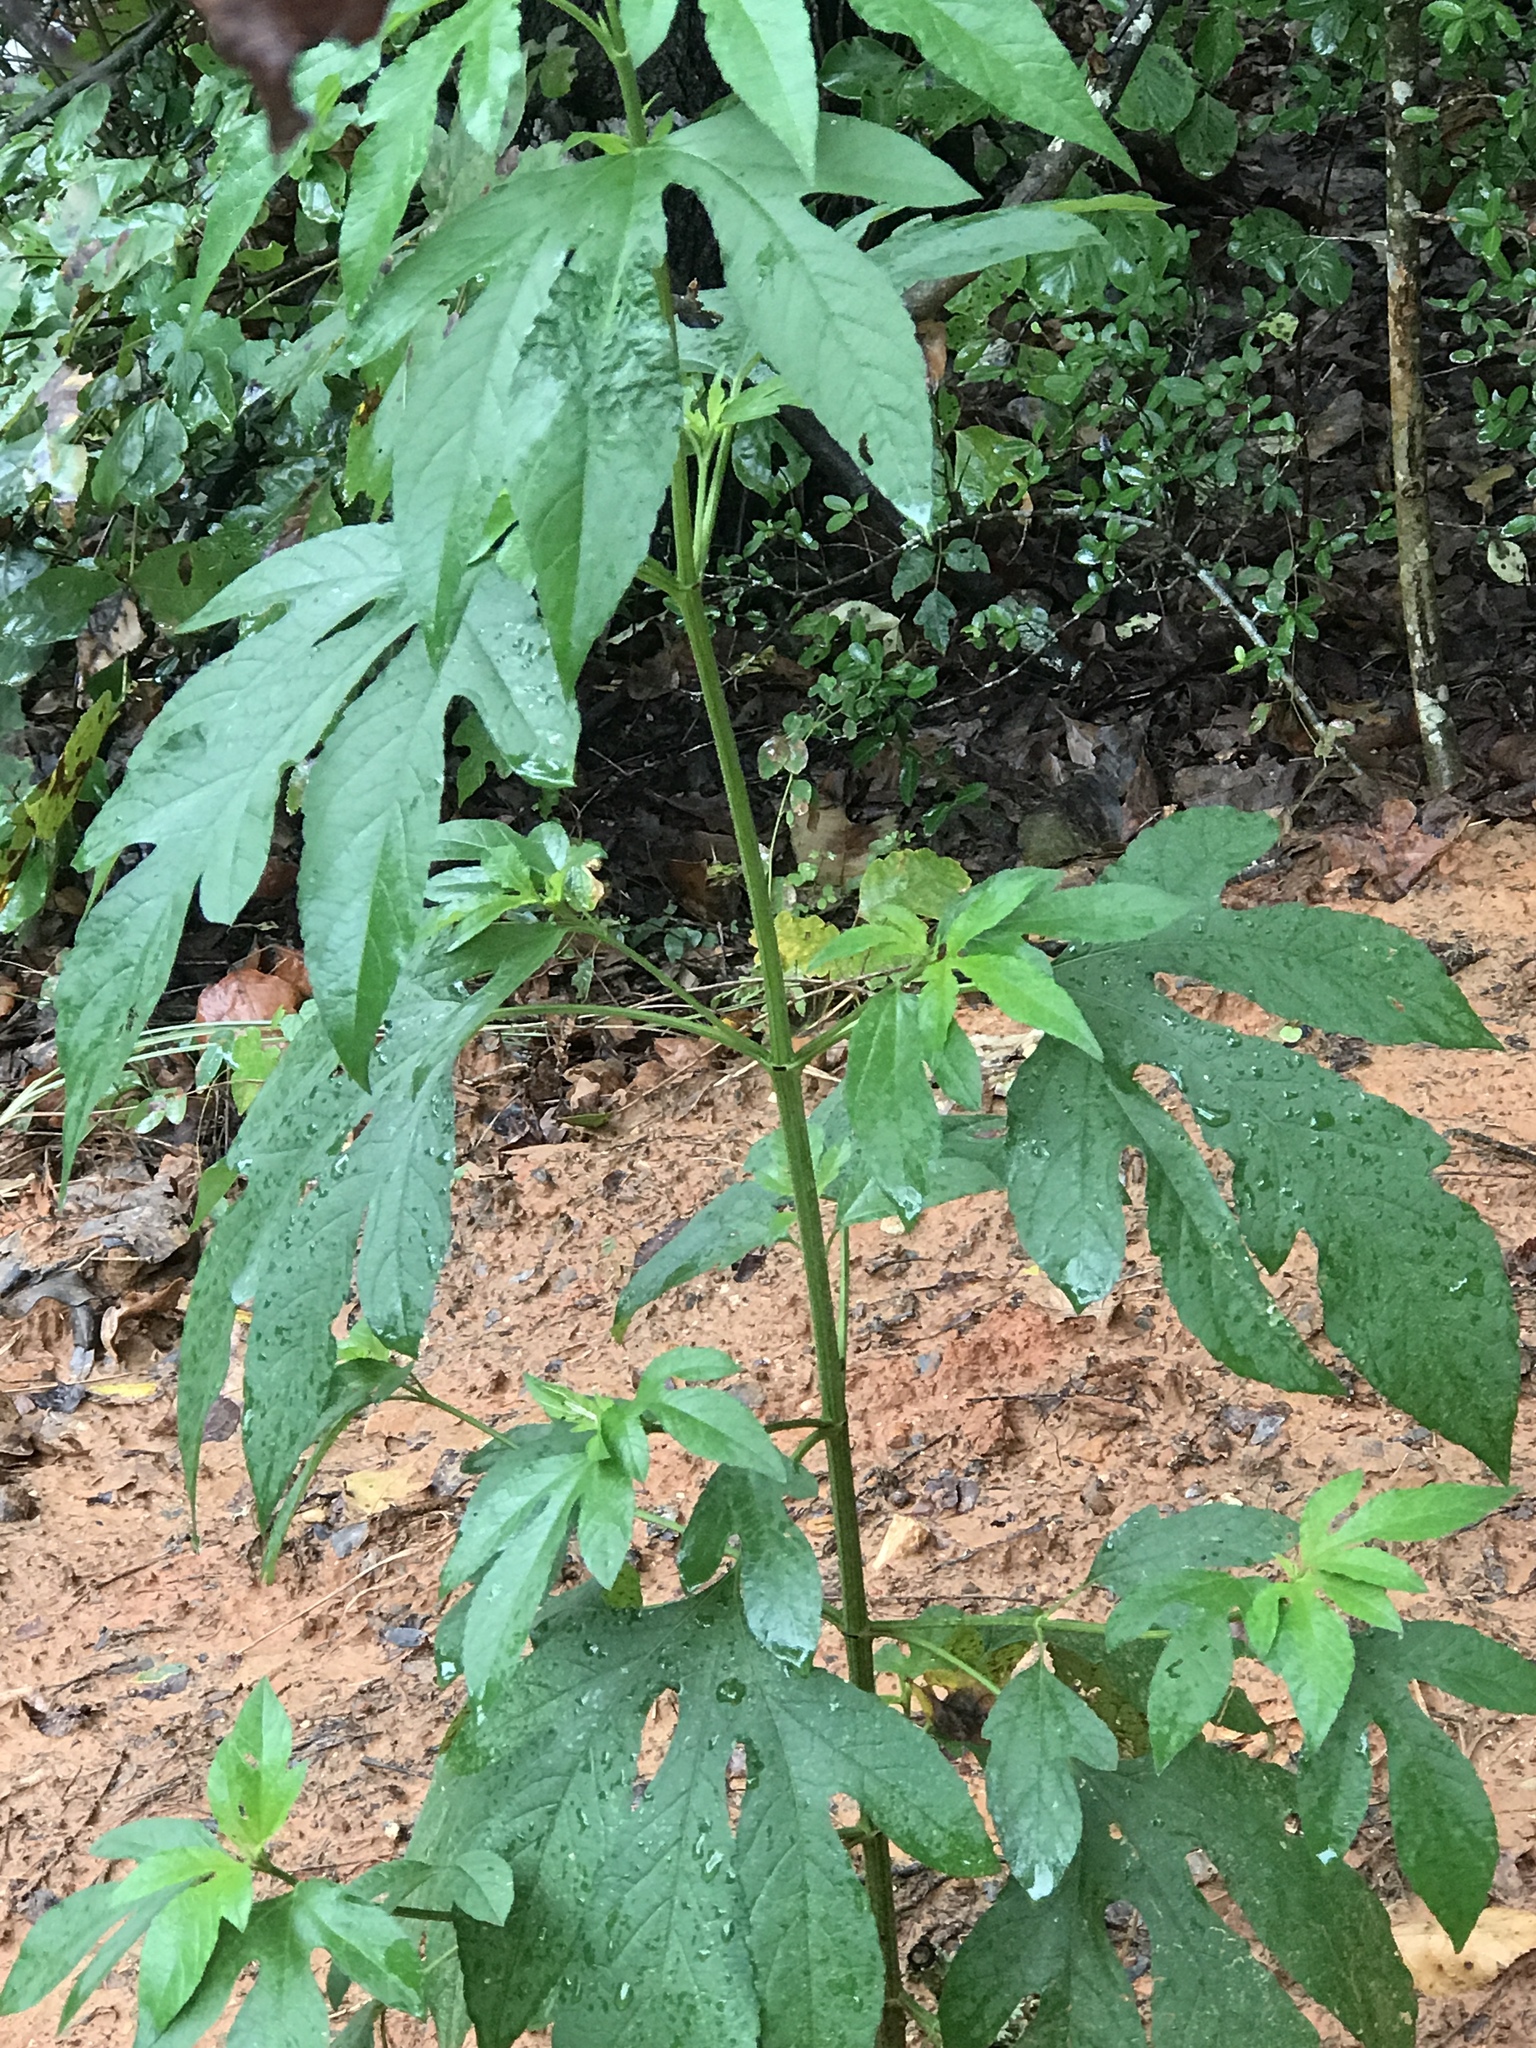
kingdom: Plantae
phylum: Tracheophyta
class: Magnoliopsida
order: Asterales
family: Asteraceae
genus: Ambrosia
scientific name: Ambrosia trifida
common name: Giant ragweed
